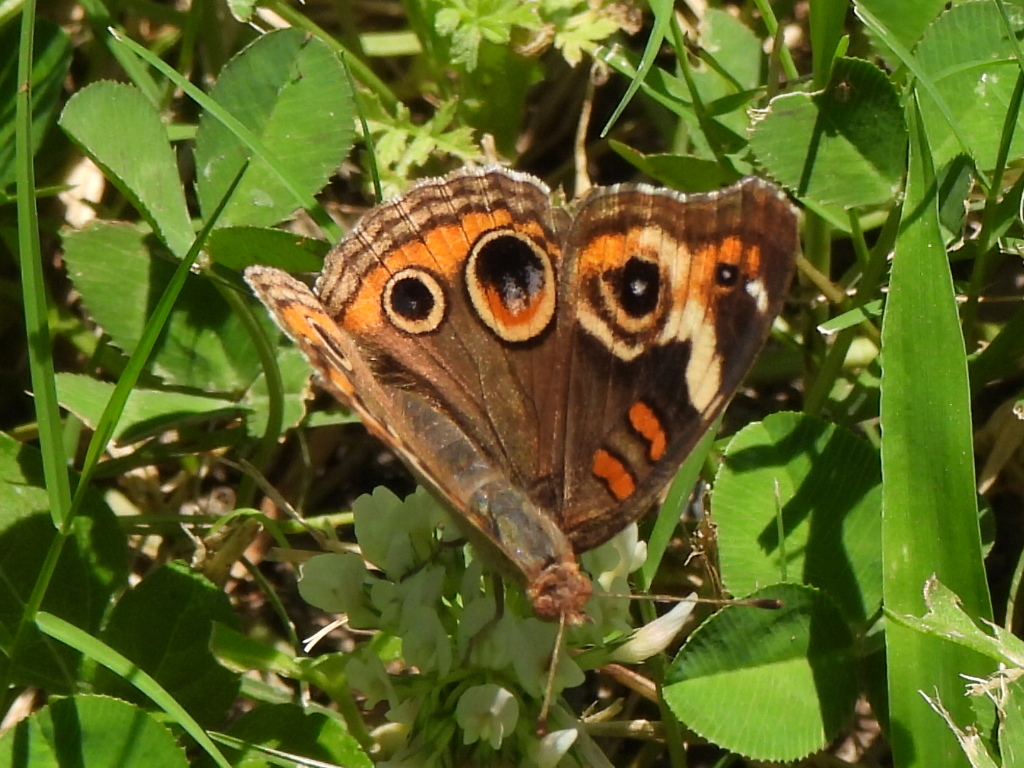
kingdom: Animalia
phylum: Arthropoda
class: Insecta
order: Lepidoptera
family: Nymphalidae
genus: Junonia
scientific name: Junonia coenia
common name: Common buckeye
